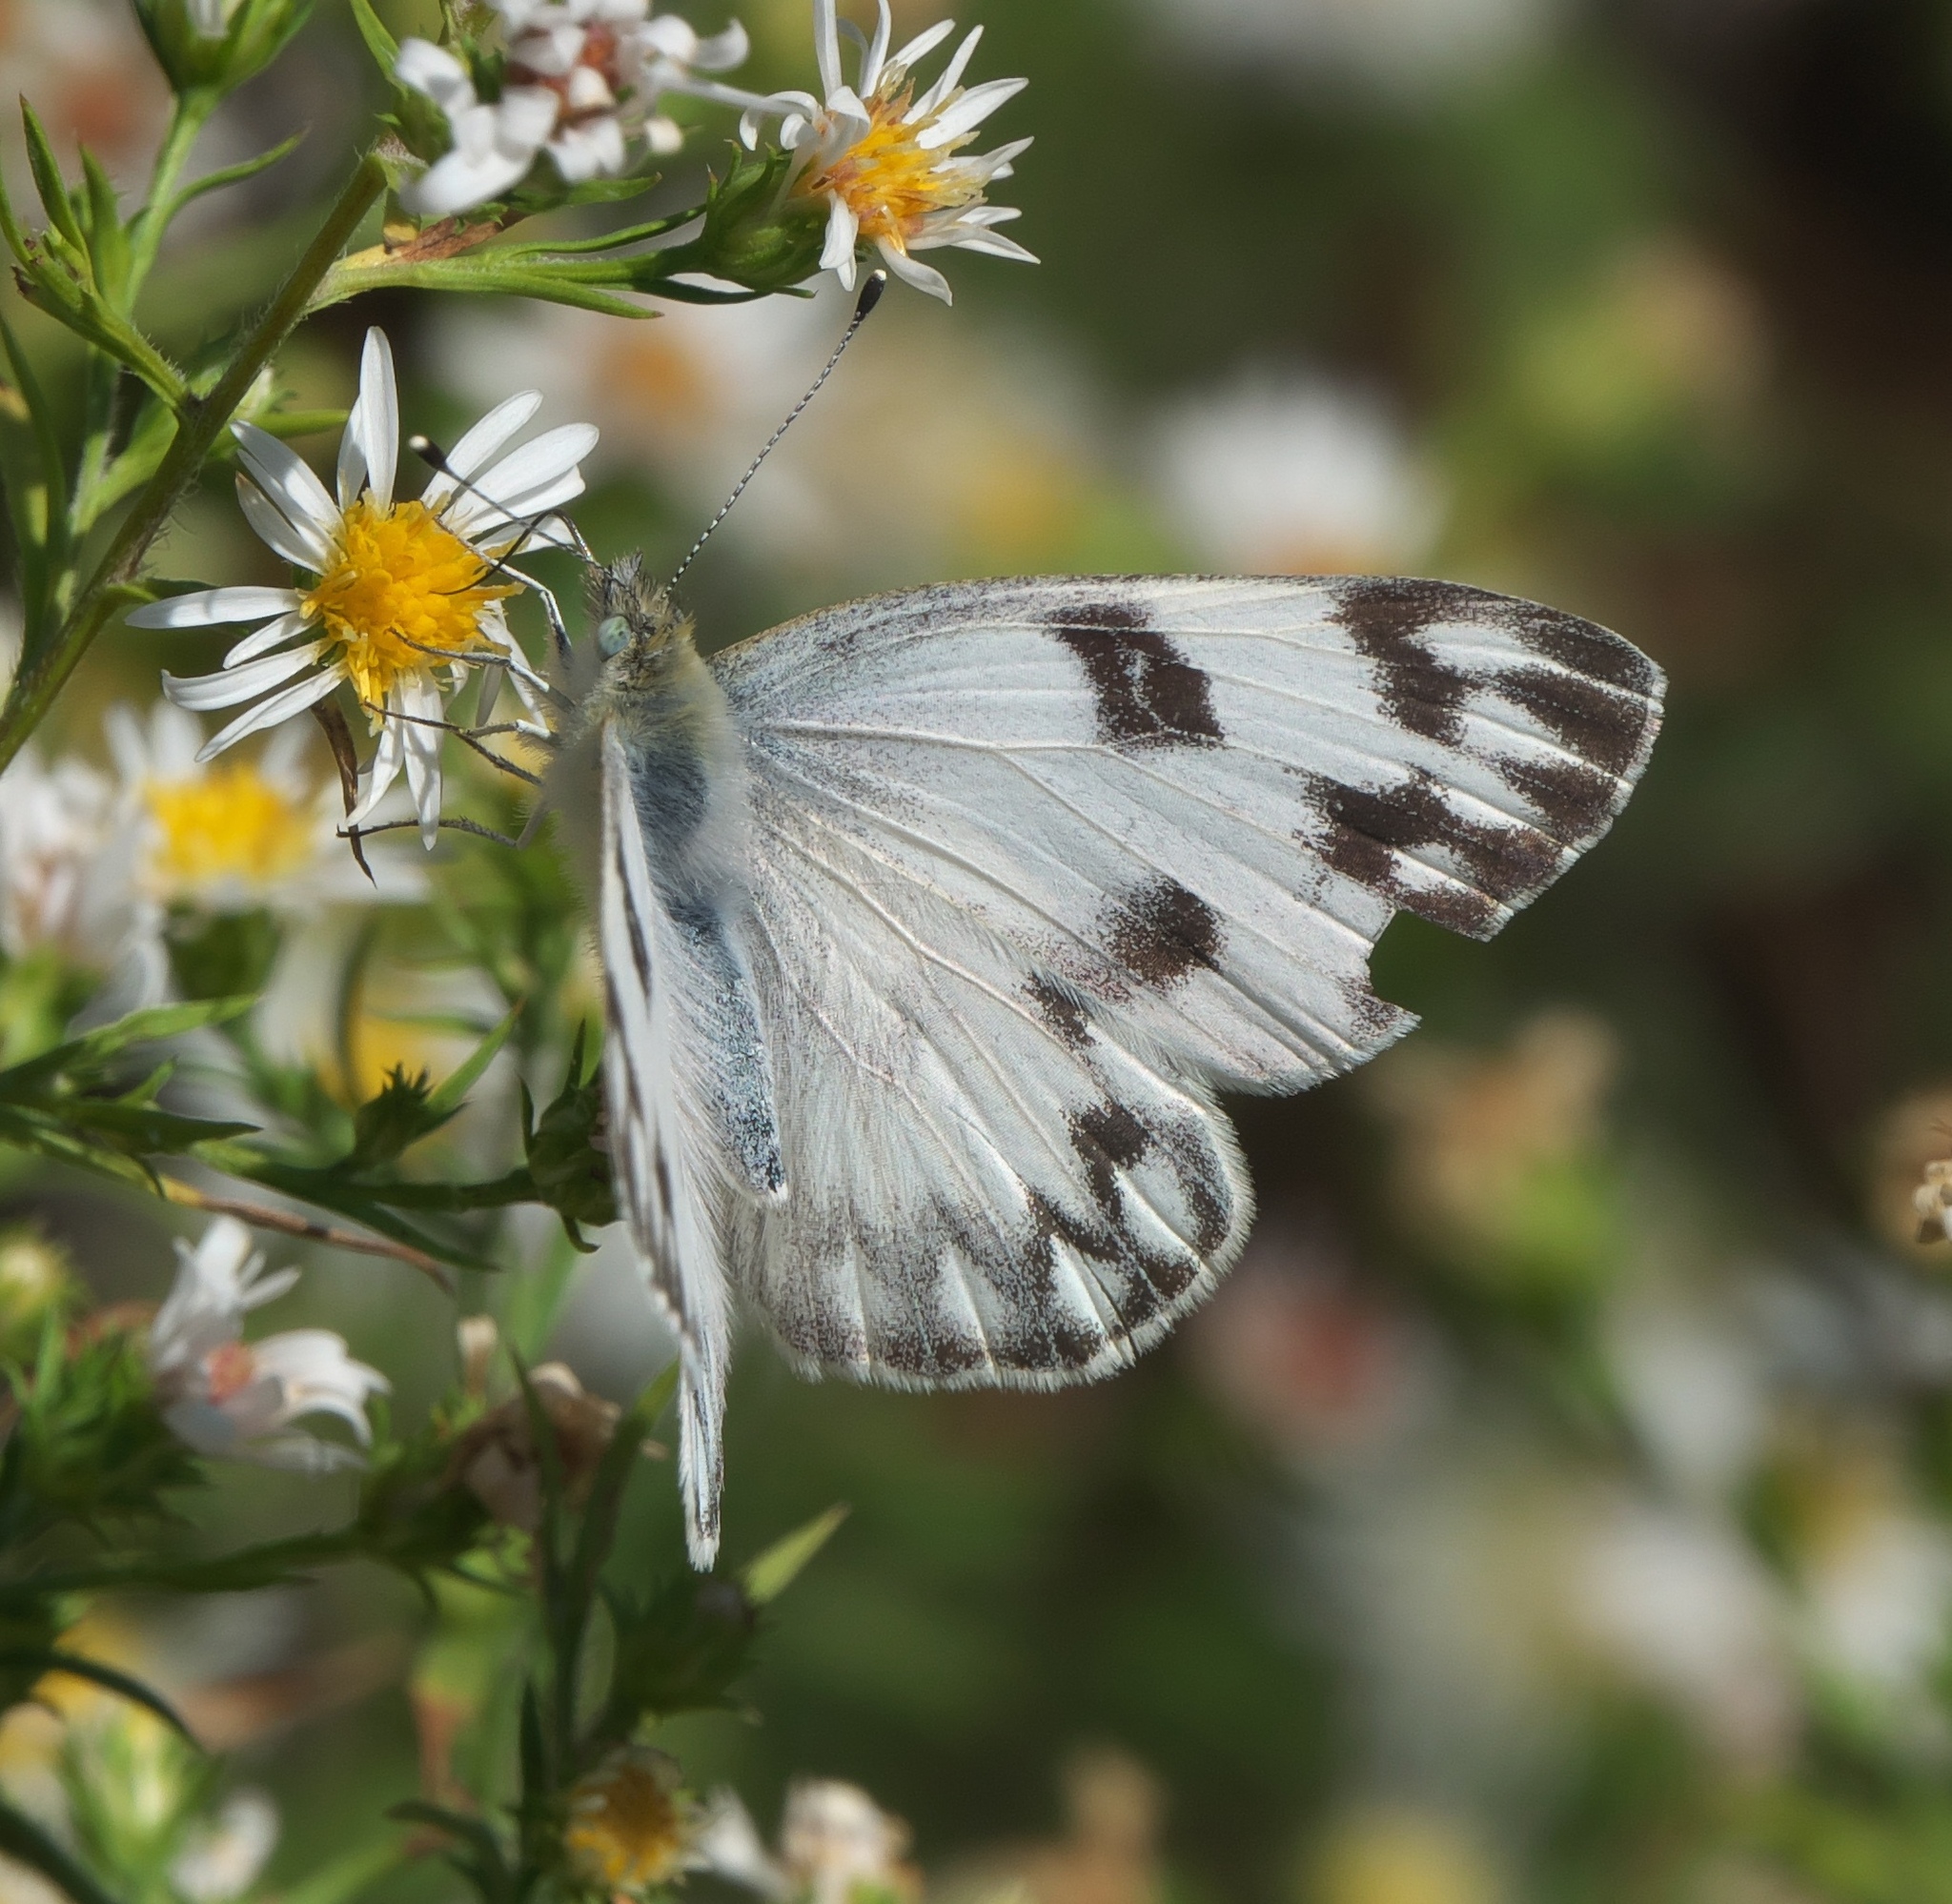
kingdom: Animalia
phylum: Arthropoda
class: Insecta
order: Lepidoptera
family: Pieridae
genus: Pontia
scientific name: Pontia protodice
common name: Checkered white
